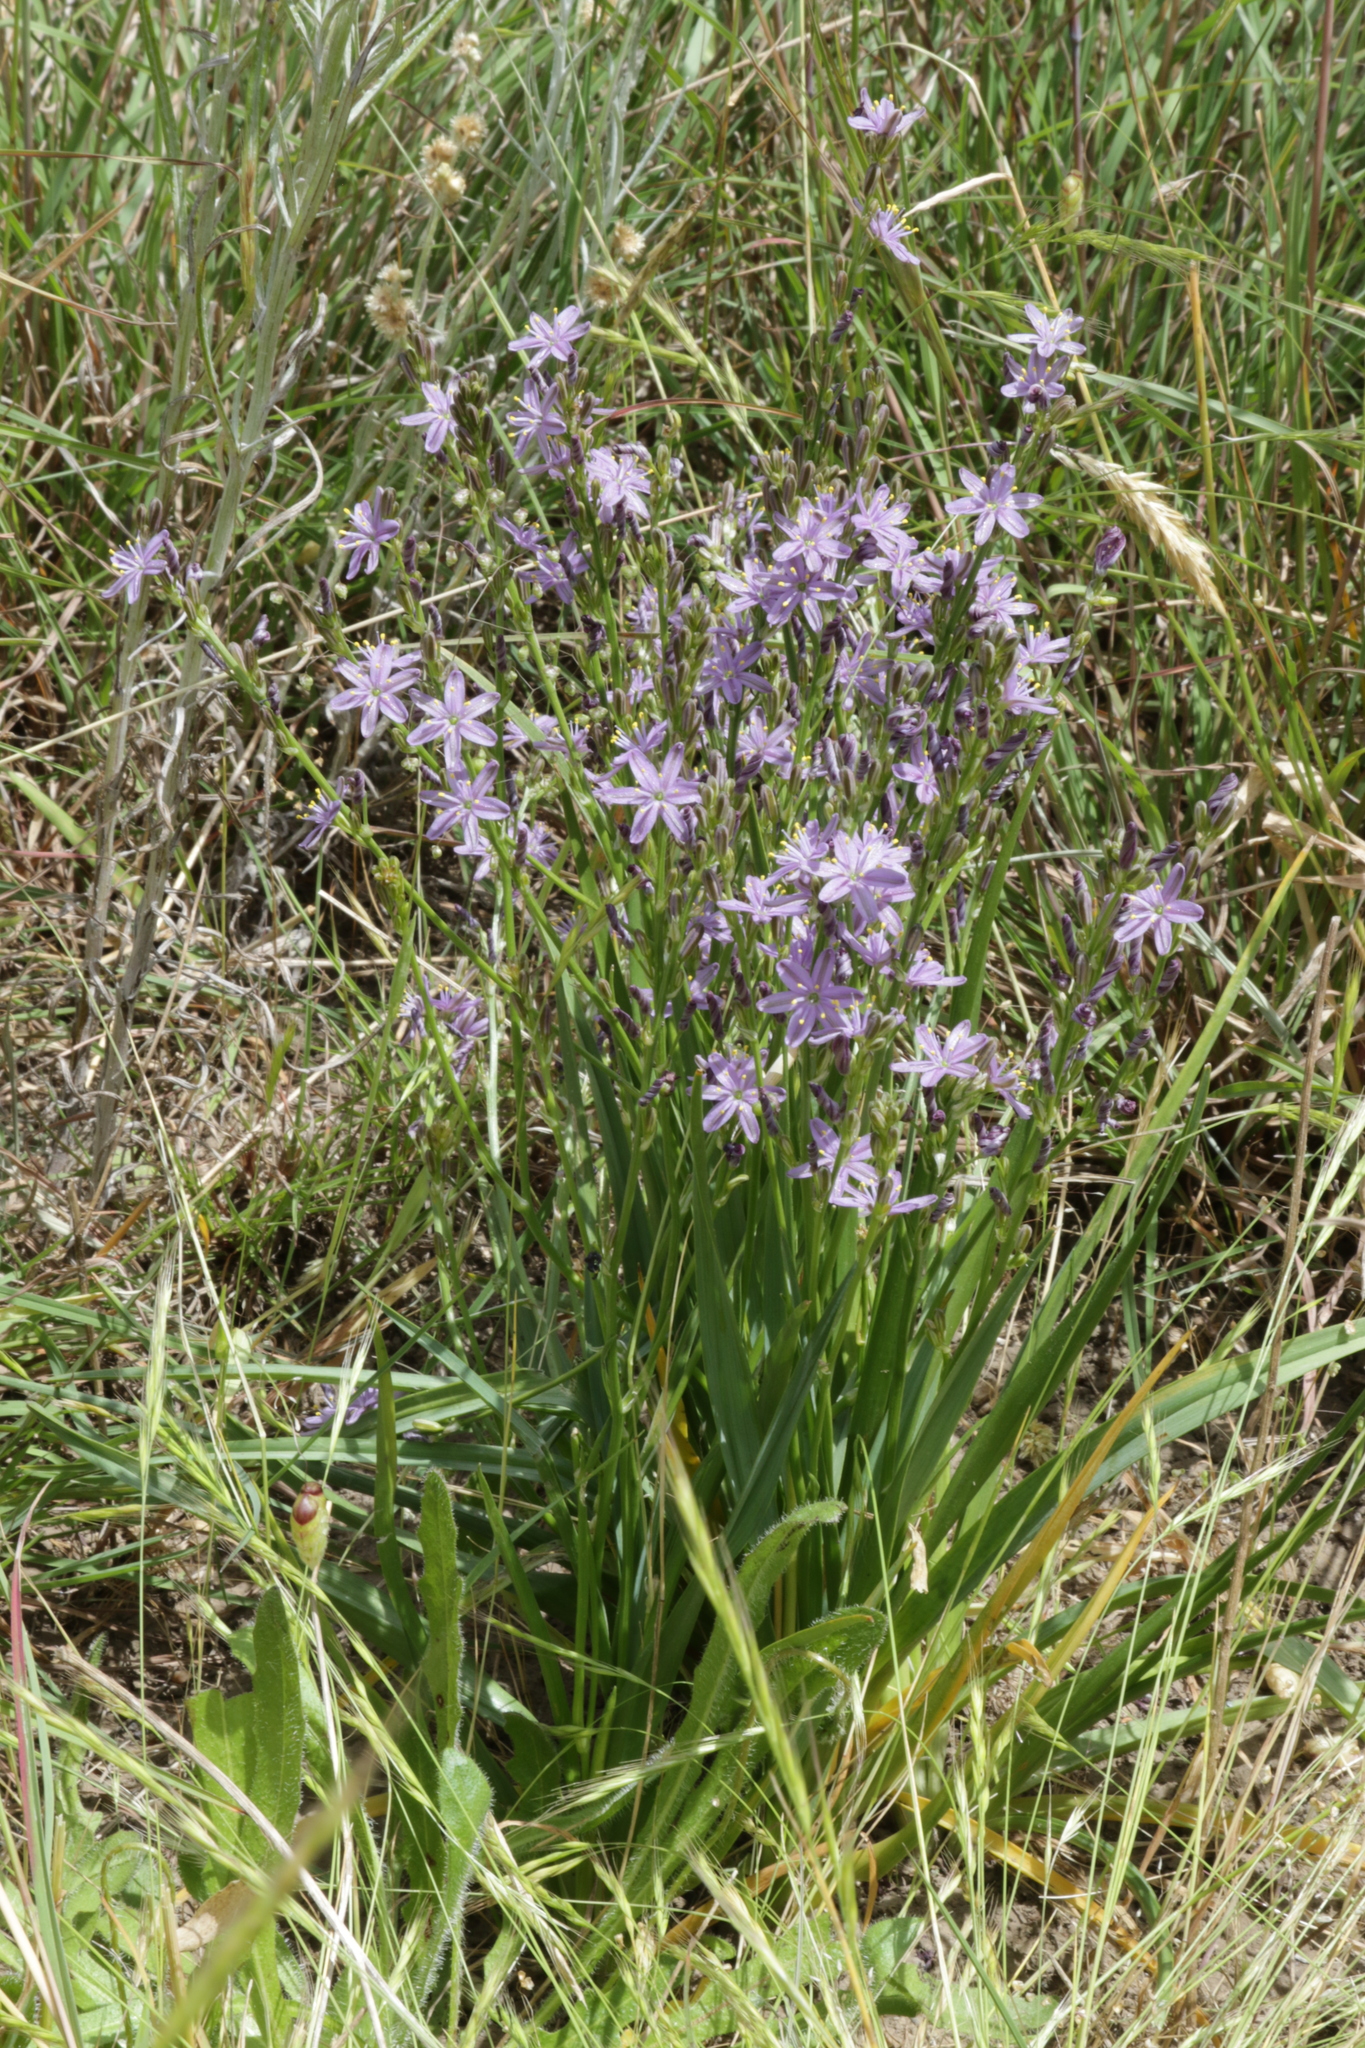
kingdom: Plantae
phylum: Tracheophyta
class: Liliopsida
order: Asparagales
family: Asphodelaceae
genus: Caesia
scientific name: Caesia calliantha
